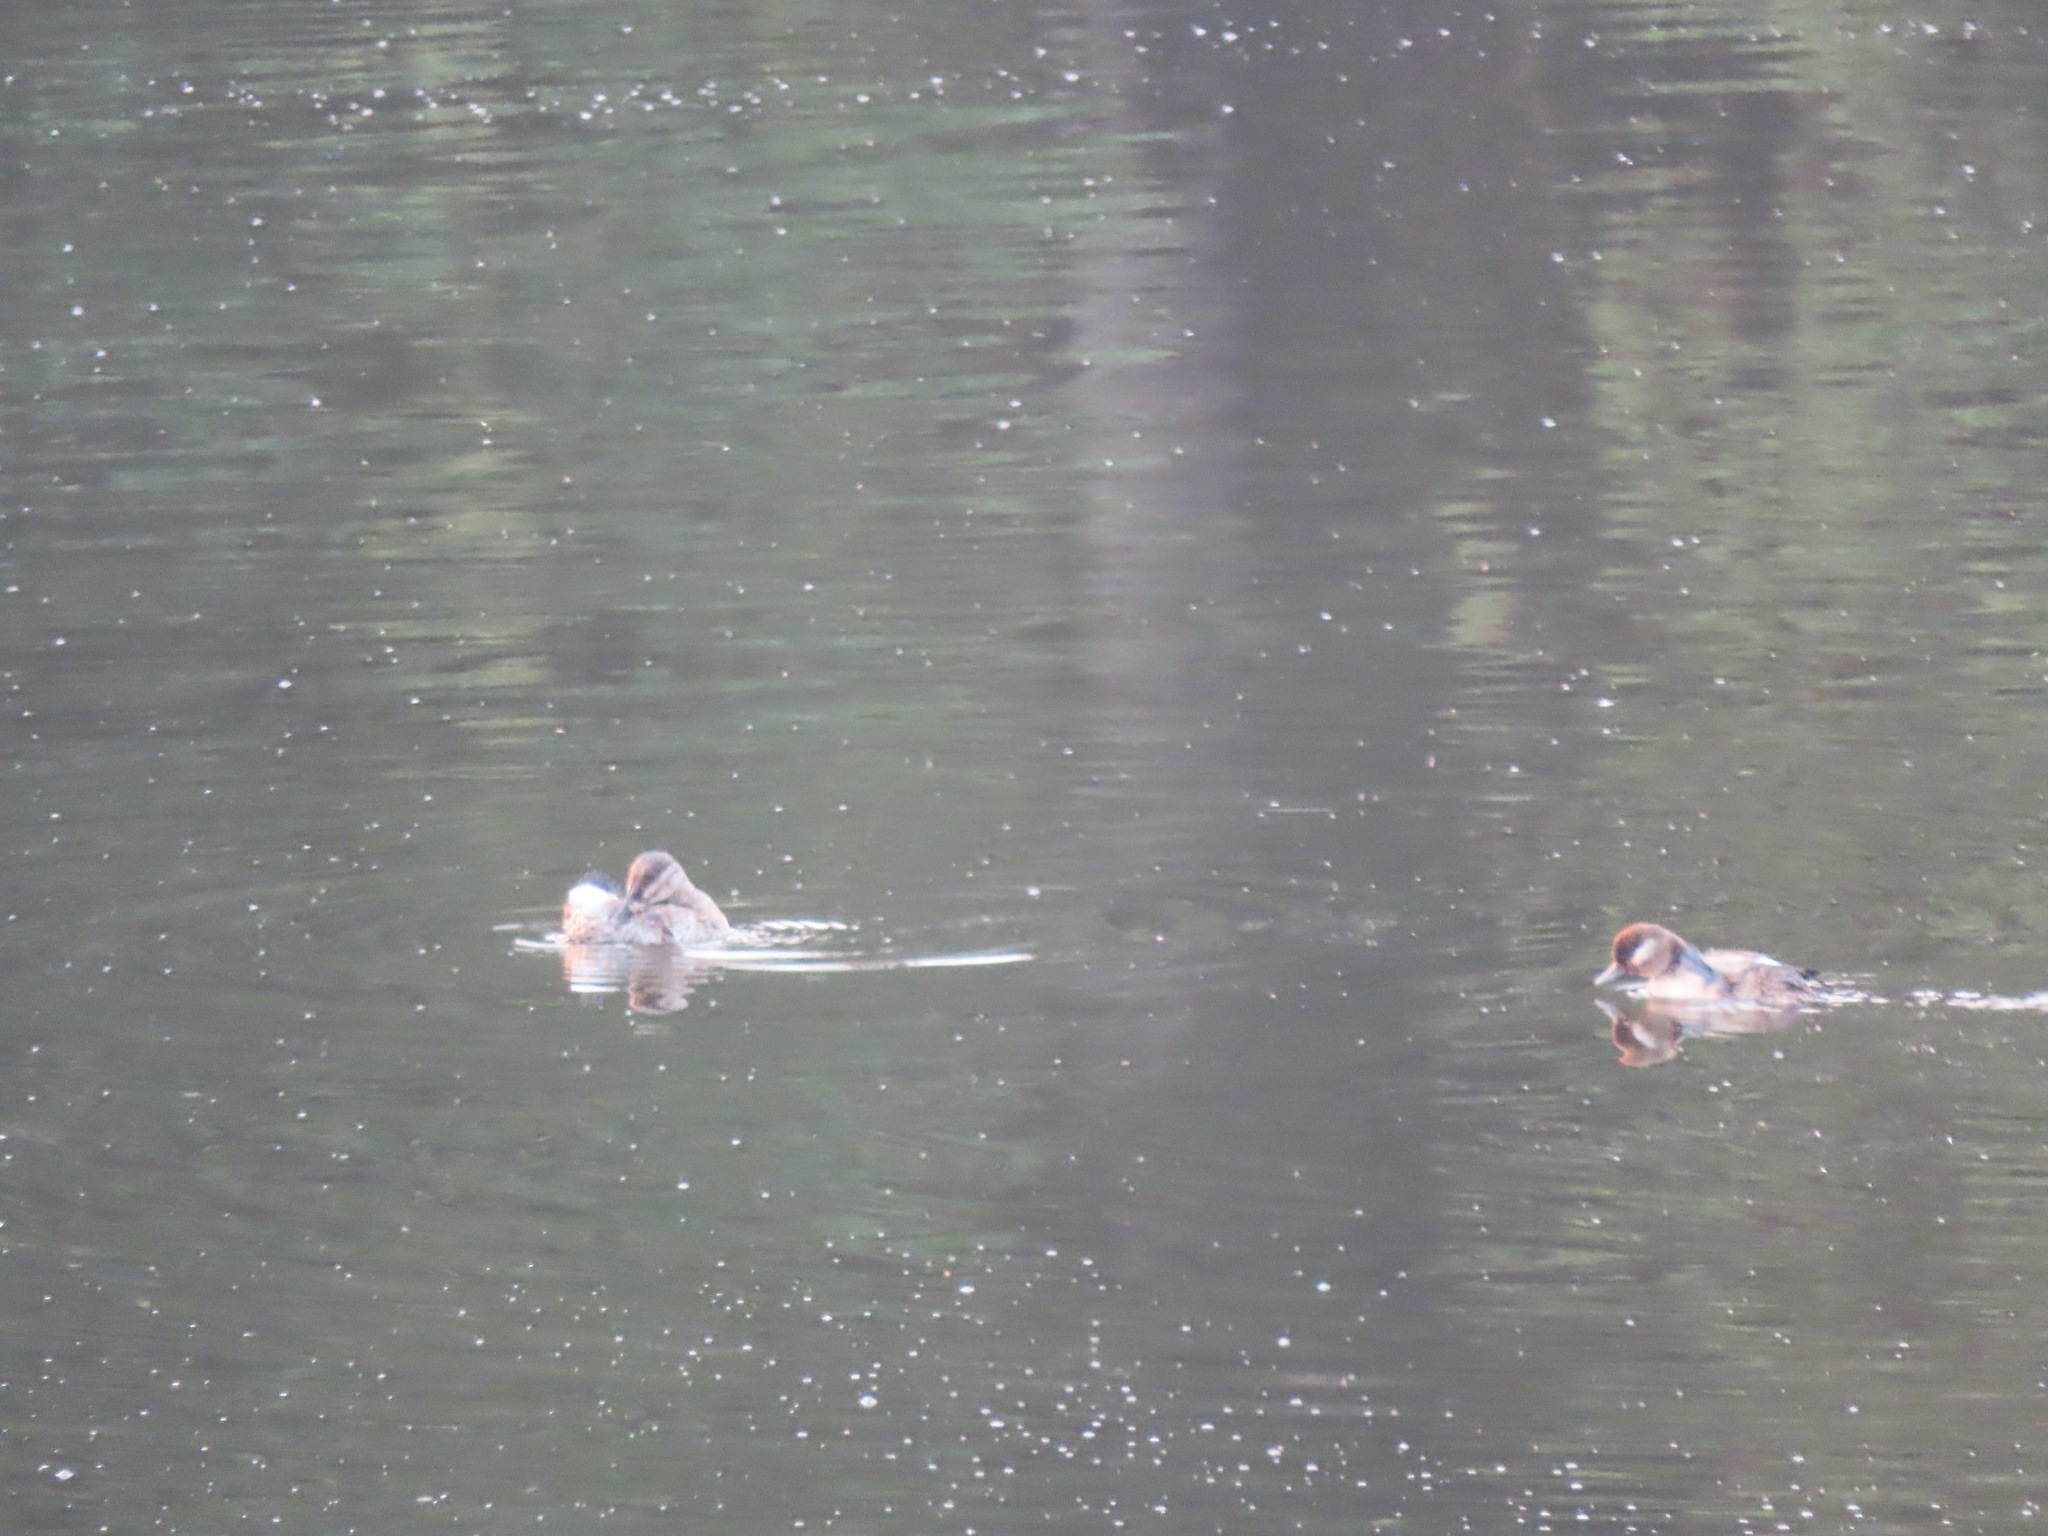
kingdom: Animalia
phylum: Chordata
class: Aves
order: Anseriformes
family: Anatidae
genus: Oxyura
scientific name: Oxyura jamaicensis
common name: Ruddy duck
